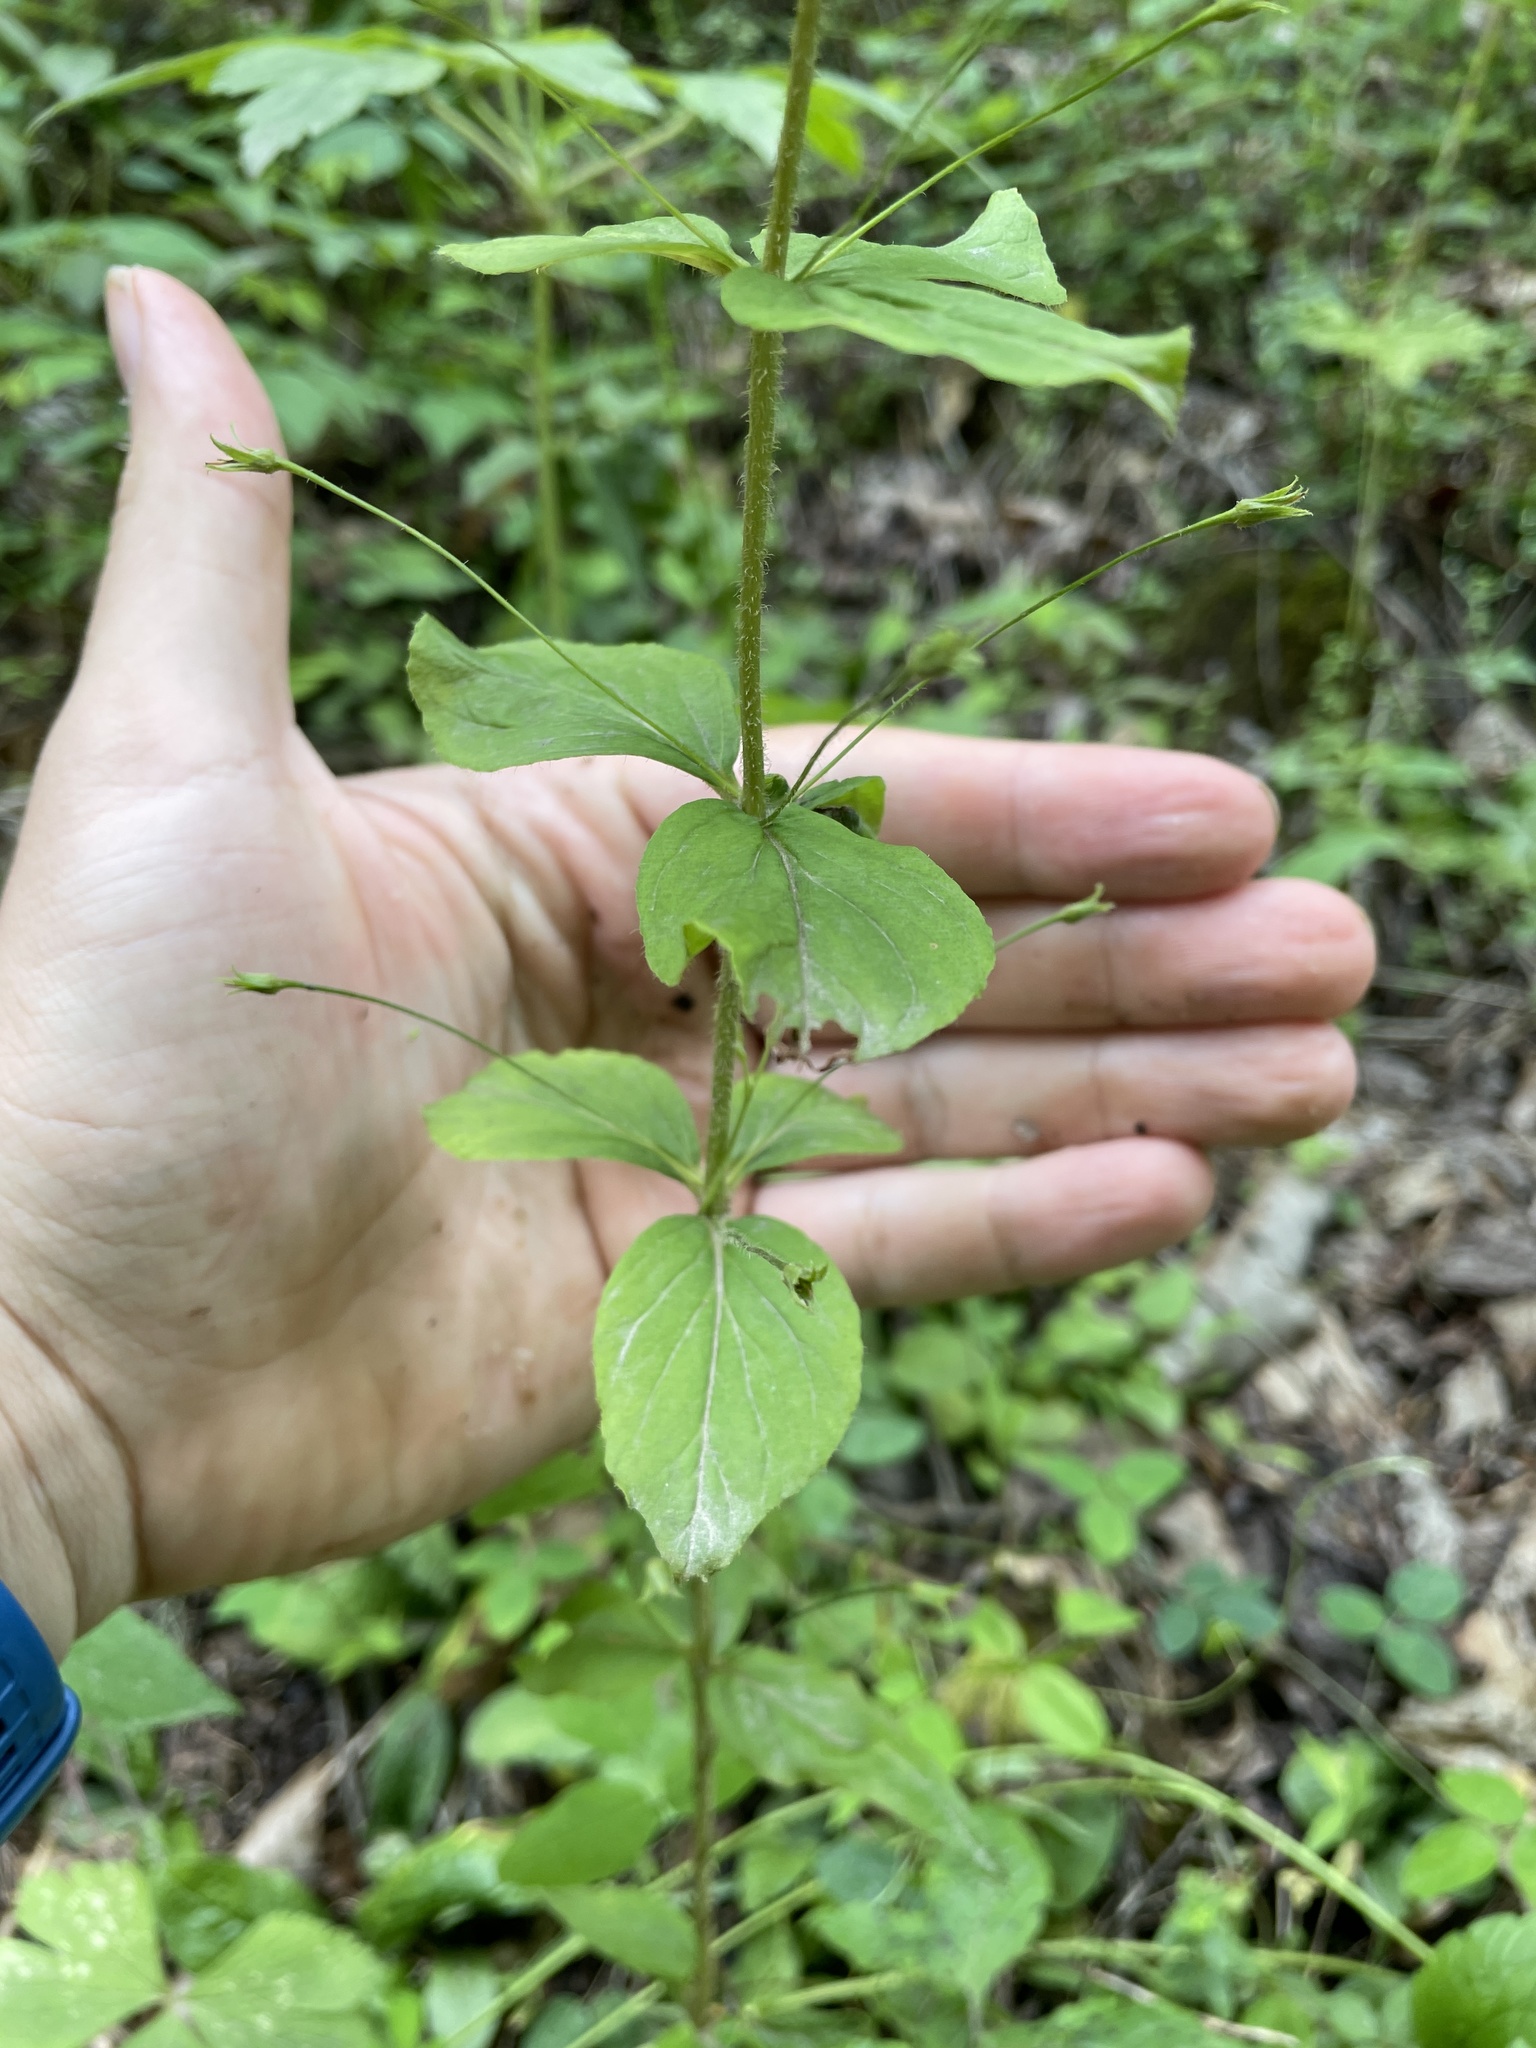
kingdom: Plantae
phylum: Tracheophyta
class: Magnoliopsida
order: Ericales
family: Primulaceae
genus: Lysimachia
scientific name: Lysimachia quadrifolia
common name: Whorled loosestrife
